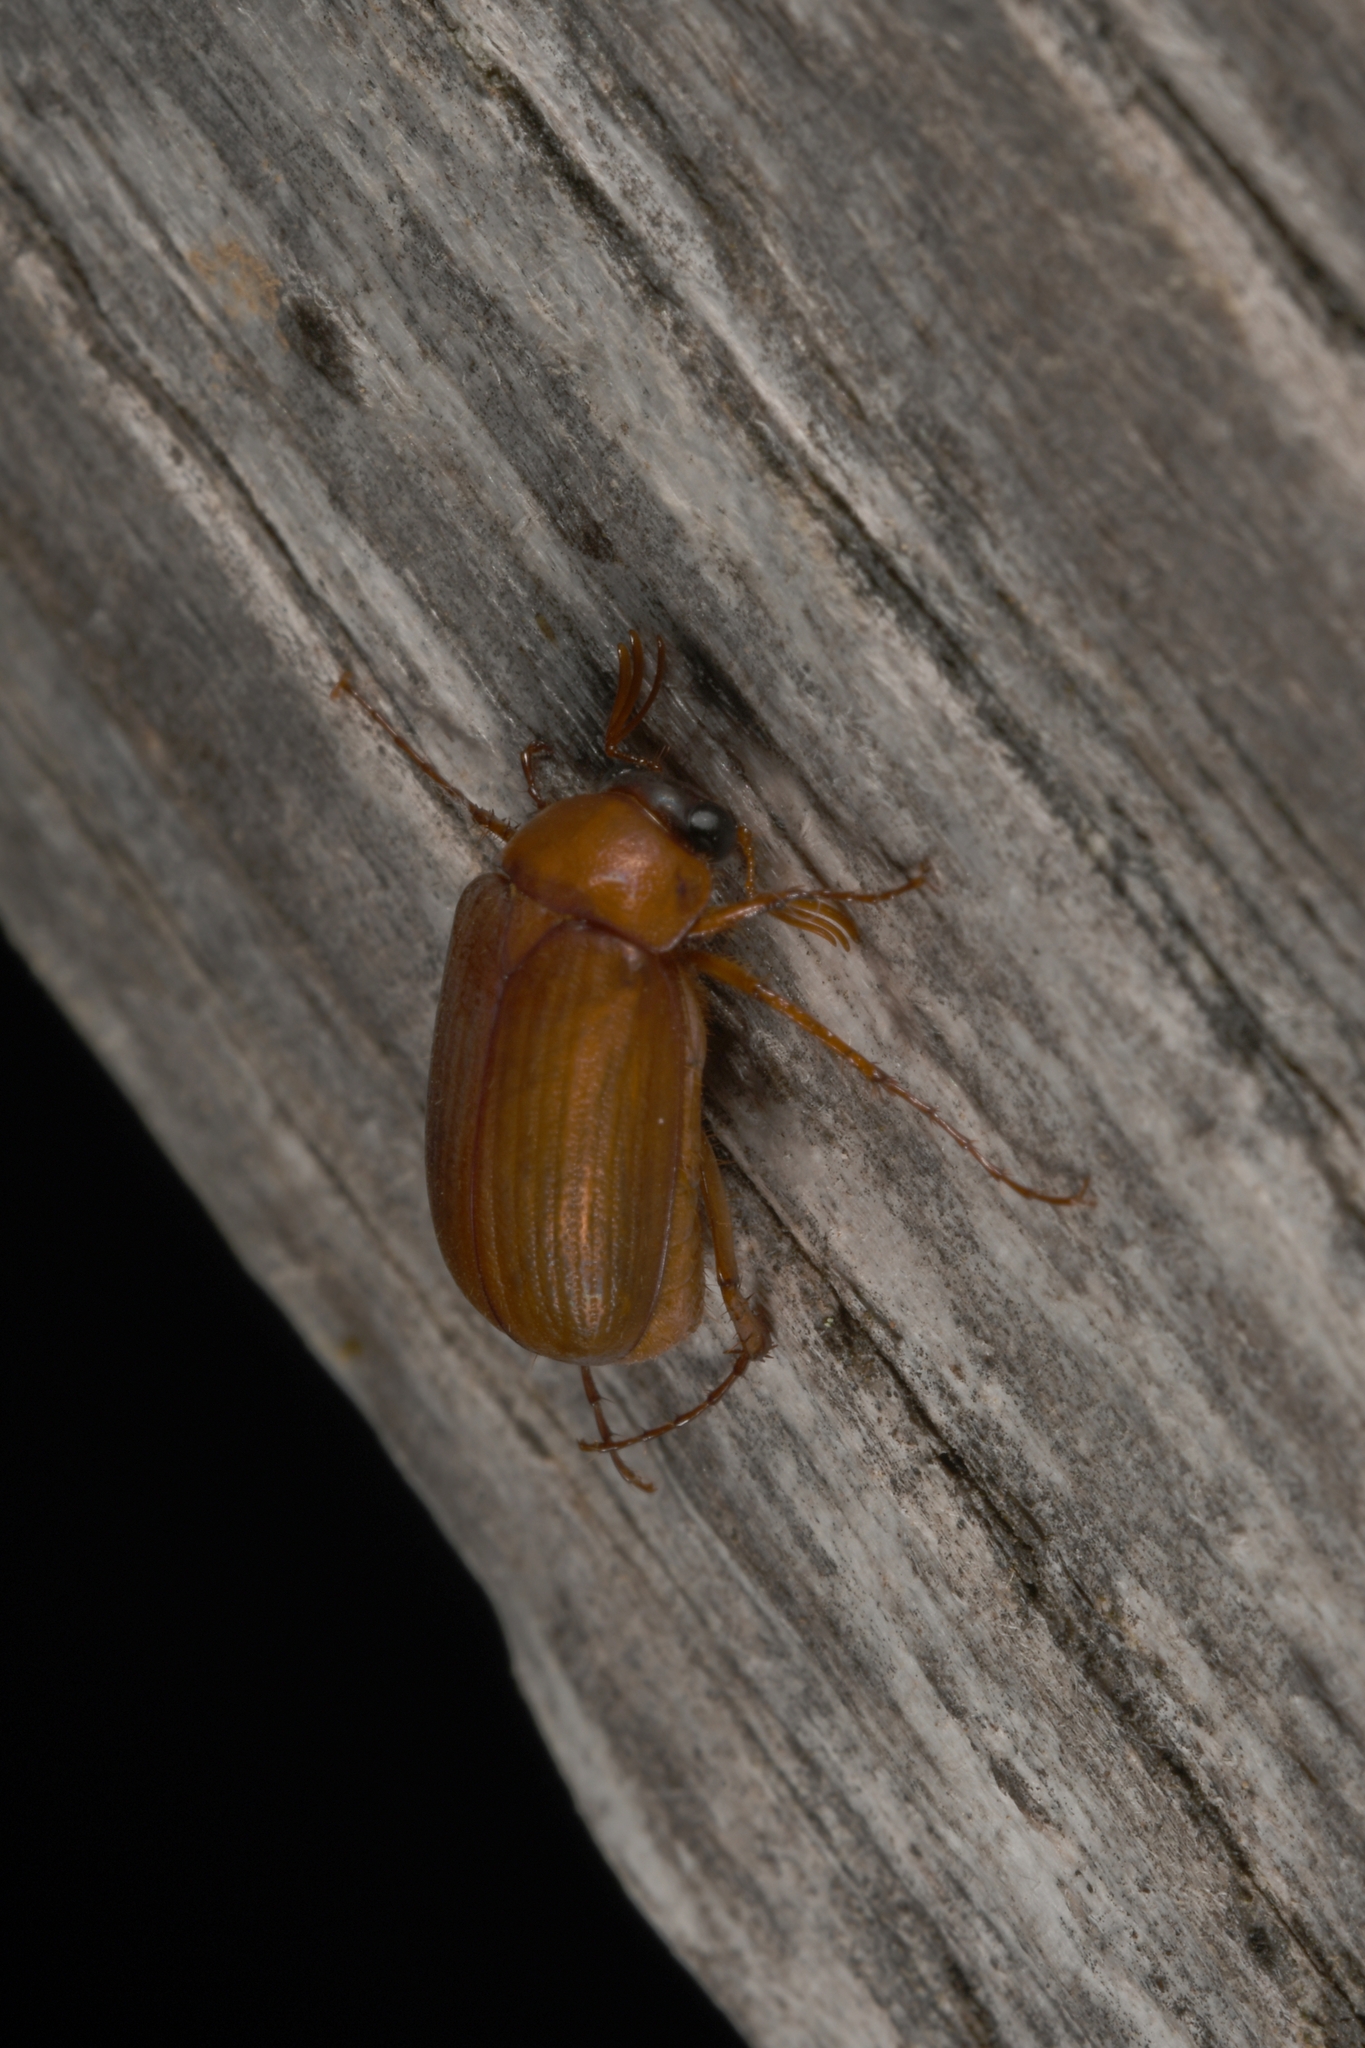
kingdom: Animalia
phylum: Arthropoda
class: Insecta
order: Coleoptera
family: Scarabaeidae
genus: Serica
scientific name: Serica brunnea
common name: Brown chafer
